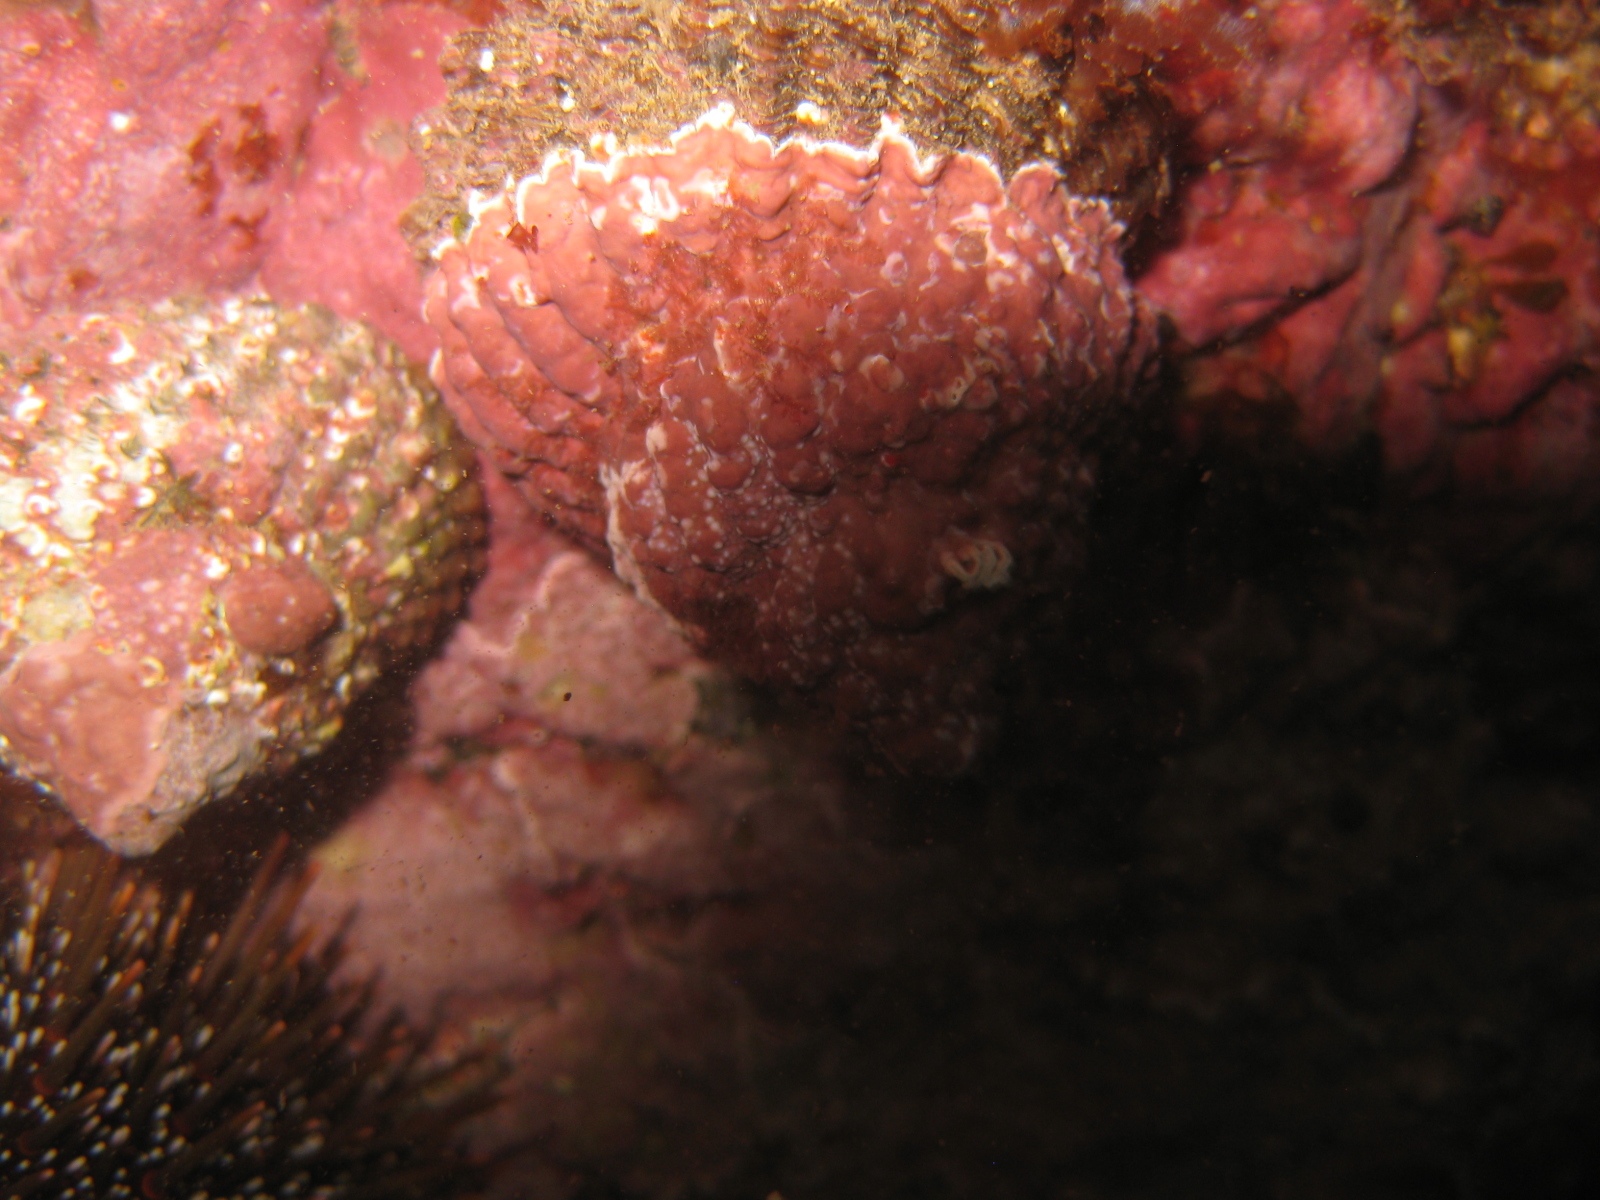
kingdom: Animalia
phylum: Mollusca
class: Gastropoda
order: Trochida
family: Turbinidae
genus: Cookia
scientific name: Cookia sulcata
